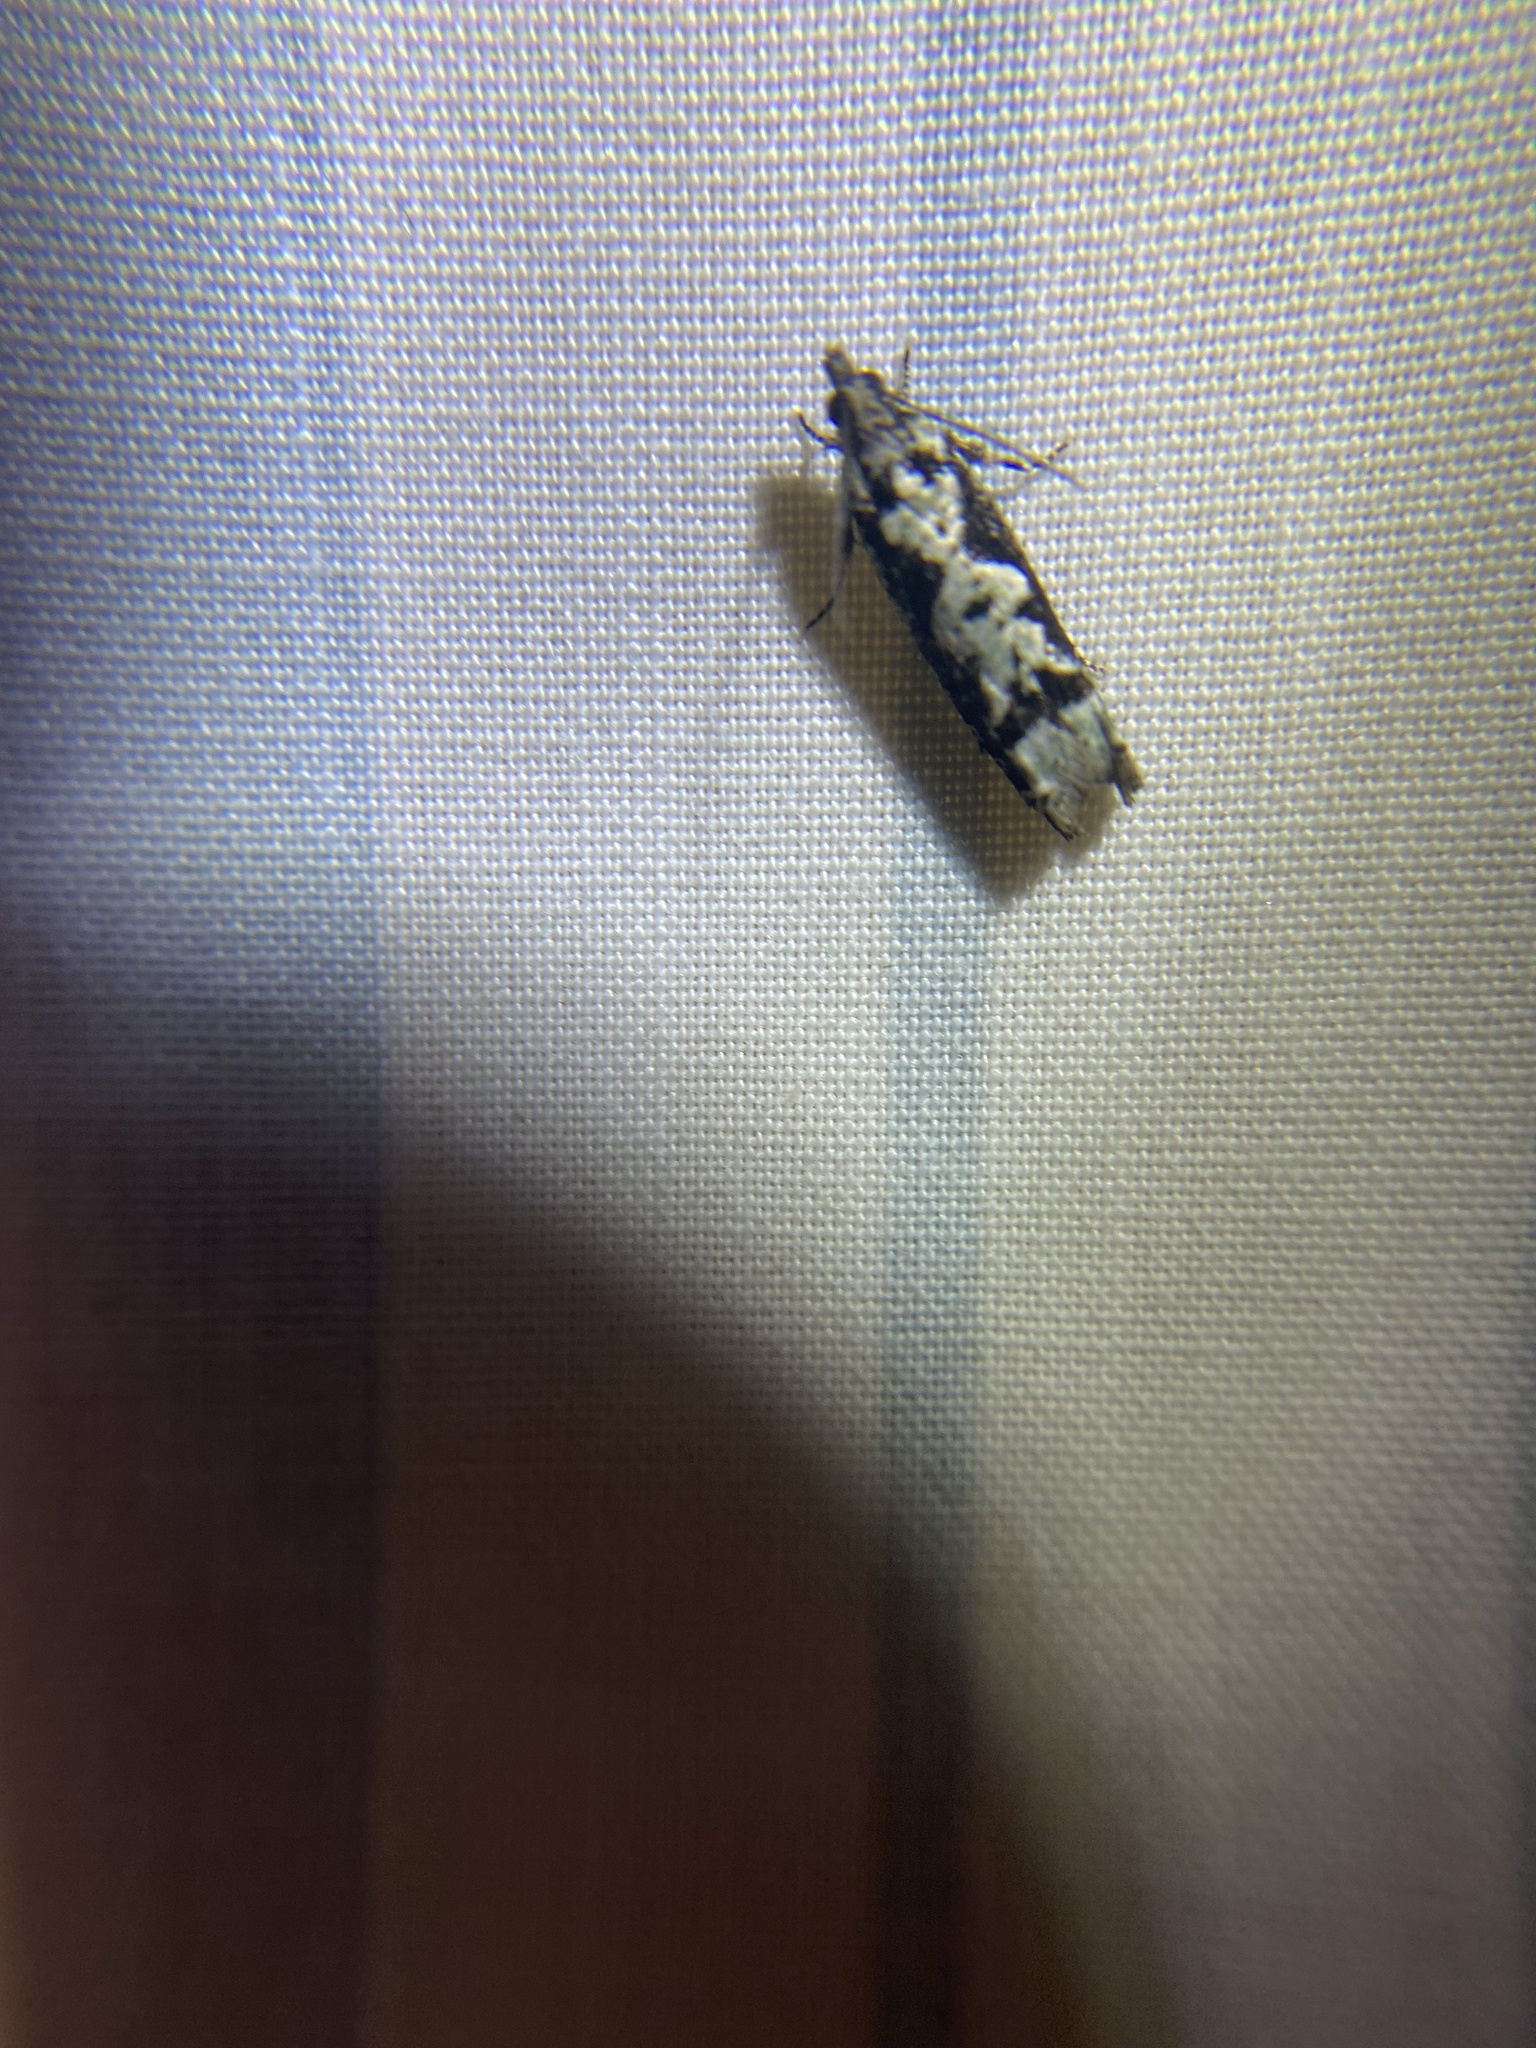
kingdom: Animalia
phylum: Arthropoda
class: Insecta
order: Lepidoptera
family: Tortricidae
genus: Chimoptesis
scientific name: Chimoptesis pennsylvaniana
